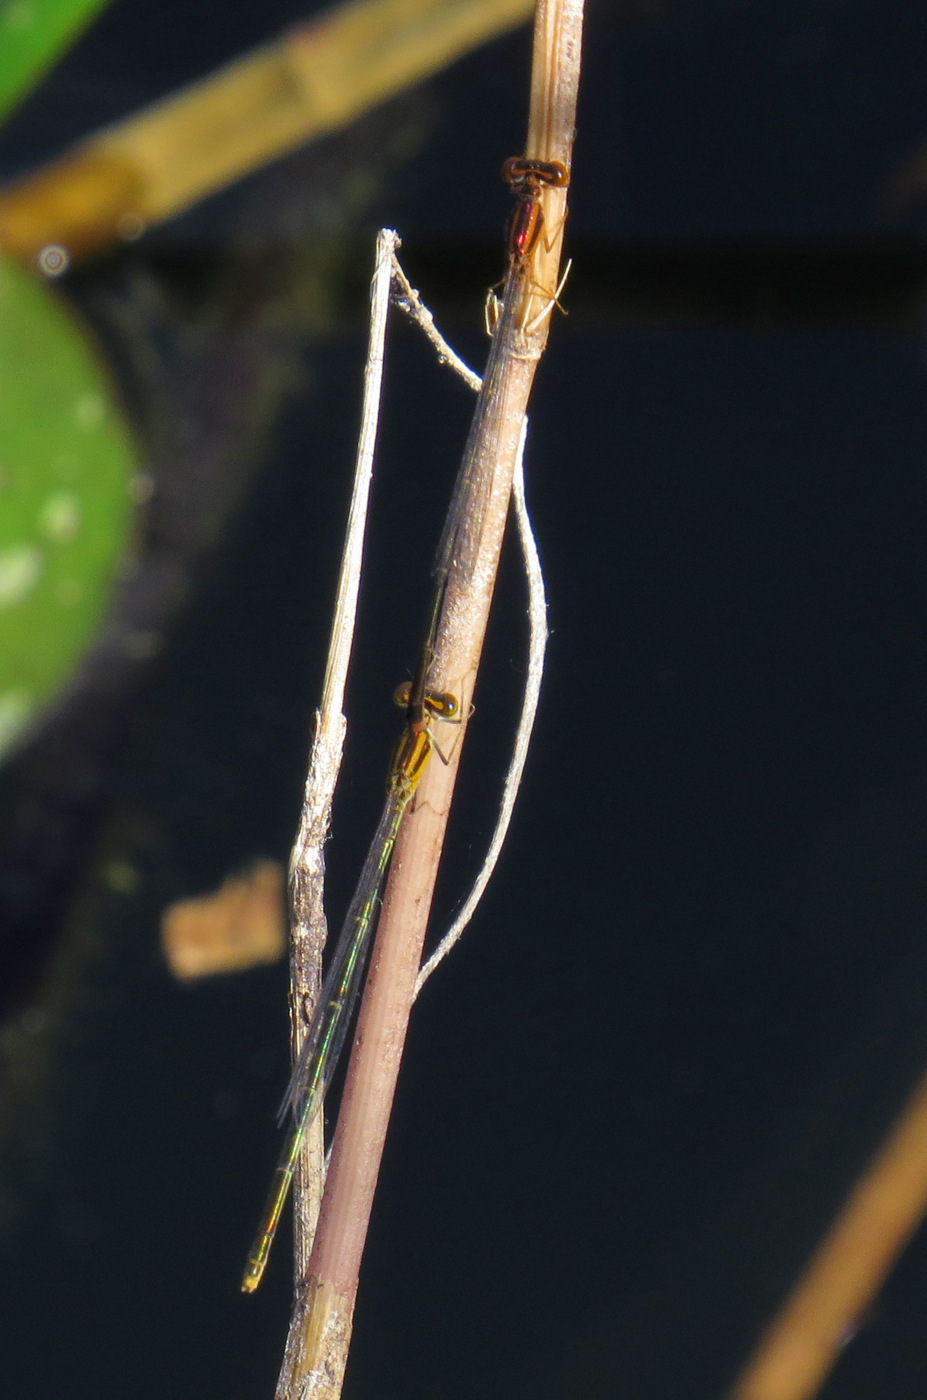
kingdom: Animalia
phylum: Arthropoda
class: Insecta
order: Odonata
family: Coenagrionidae
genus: Enallagma
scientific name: Enallagma pollutum
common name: Florida bluet
